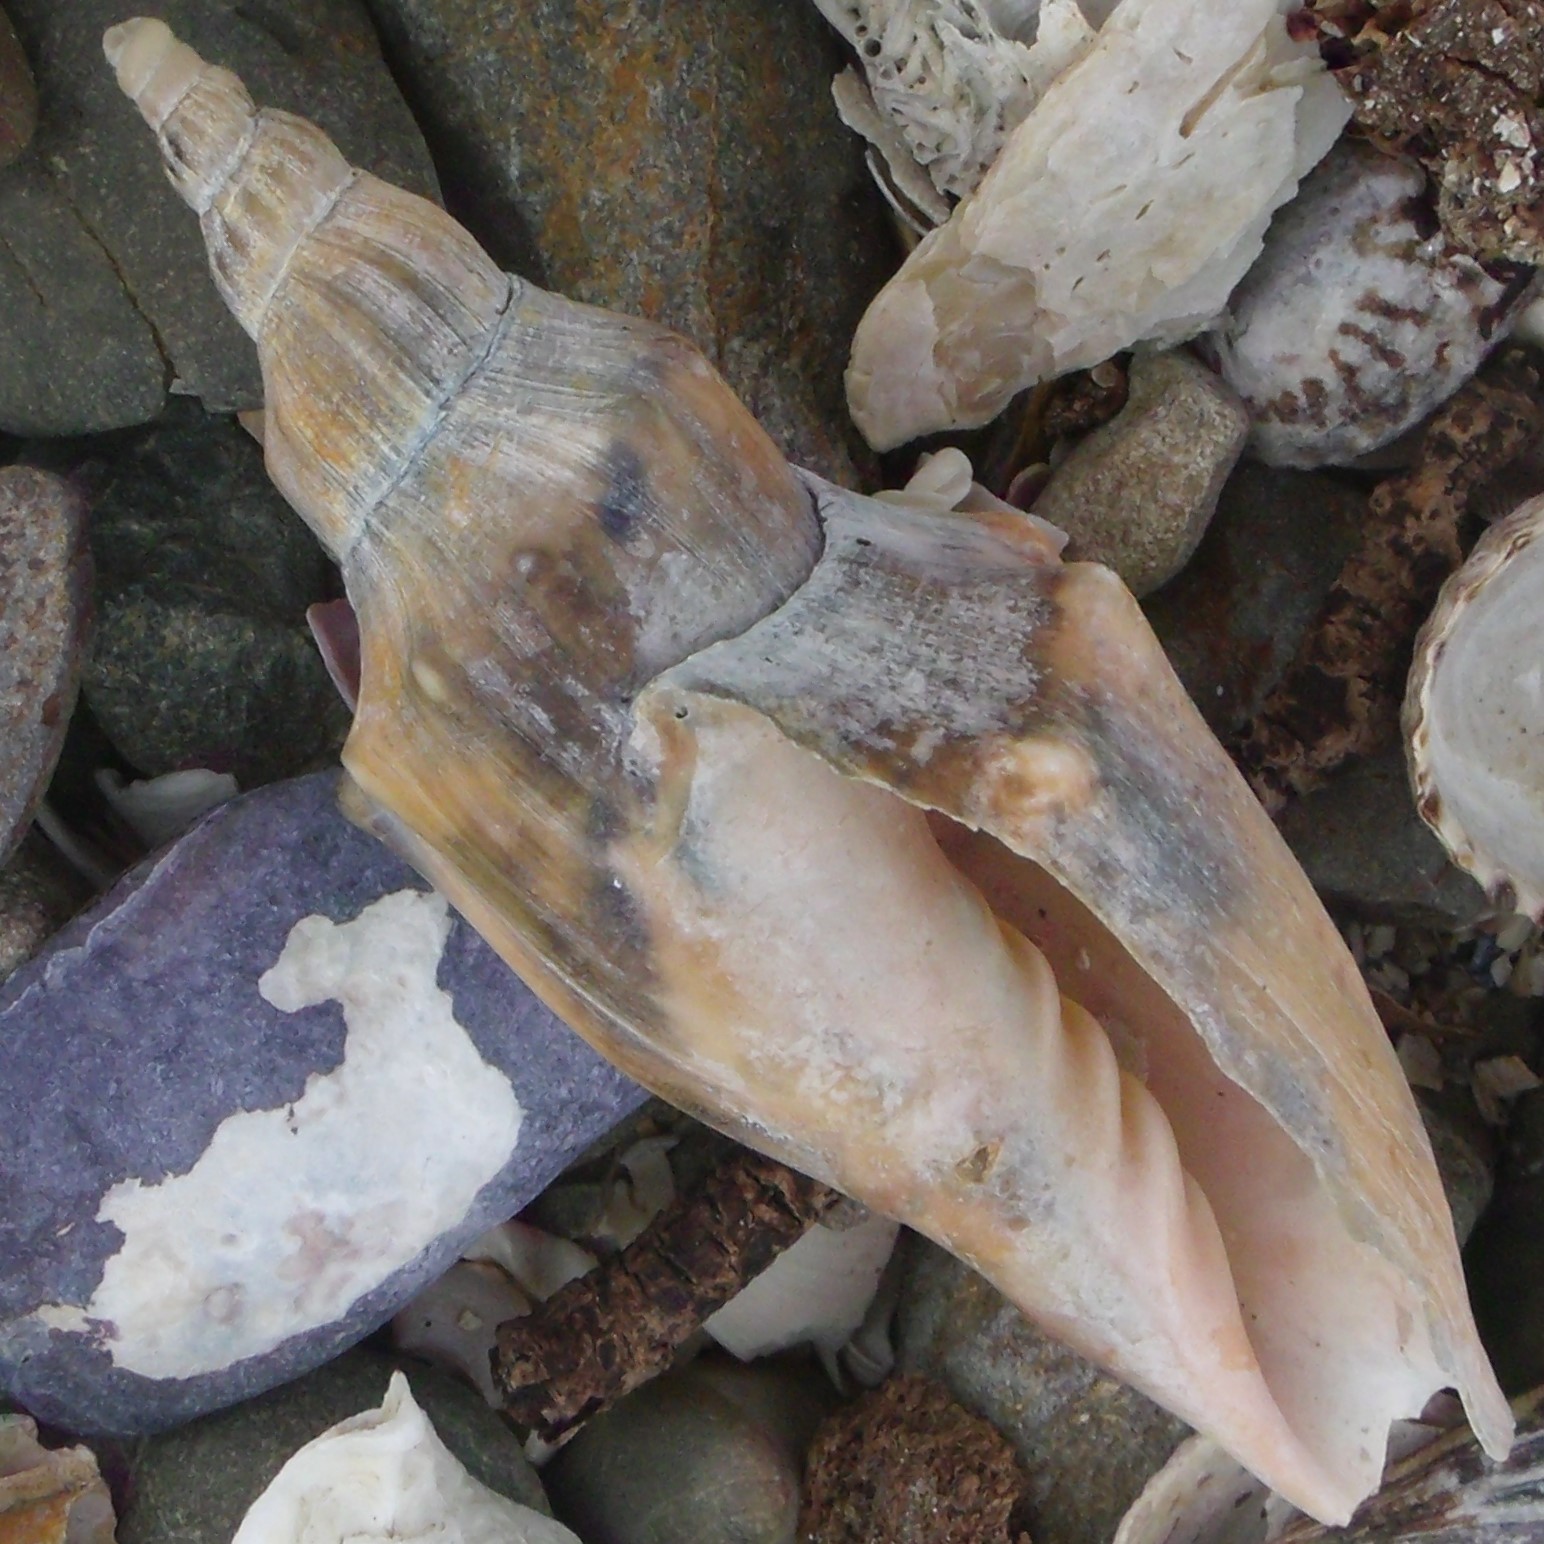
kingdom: Animalia
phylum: Mollusca
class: Gastropoda
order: Neogastropoda
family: Volutidae
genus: Alcithoe
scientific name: Alcithoe arabica
